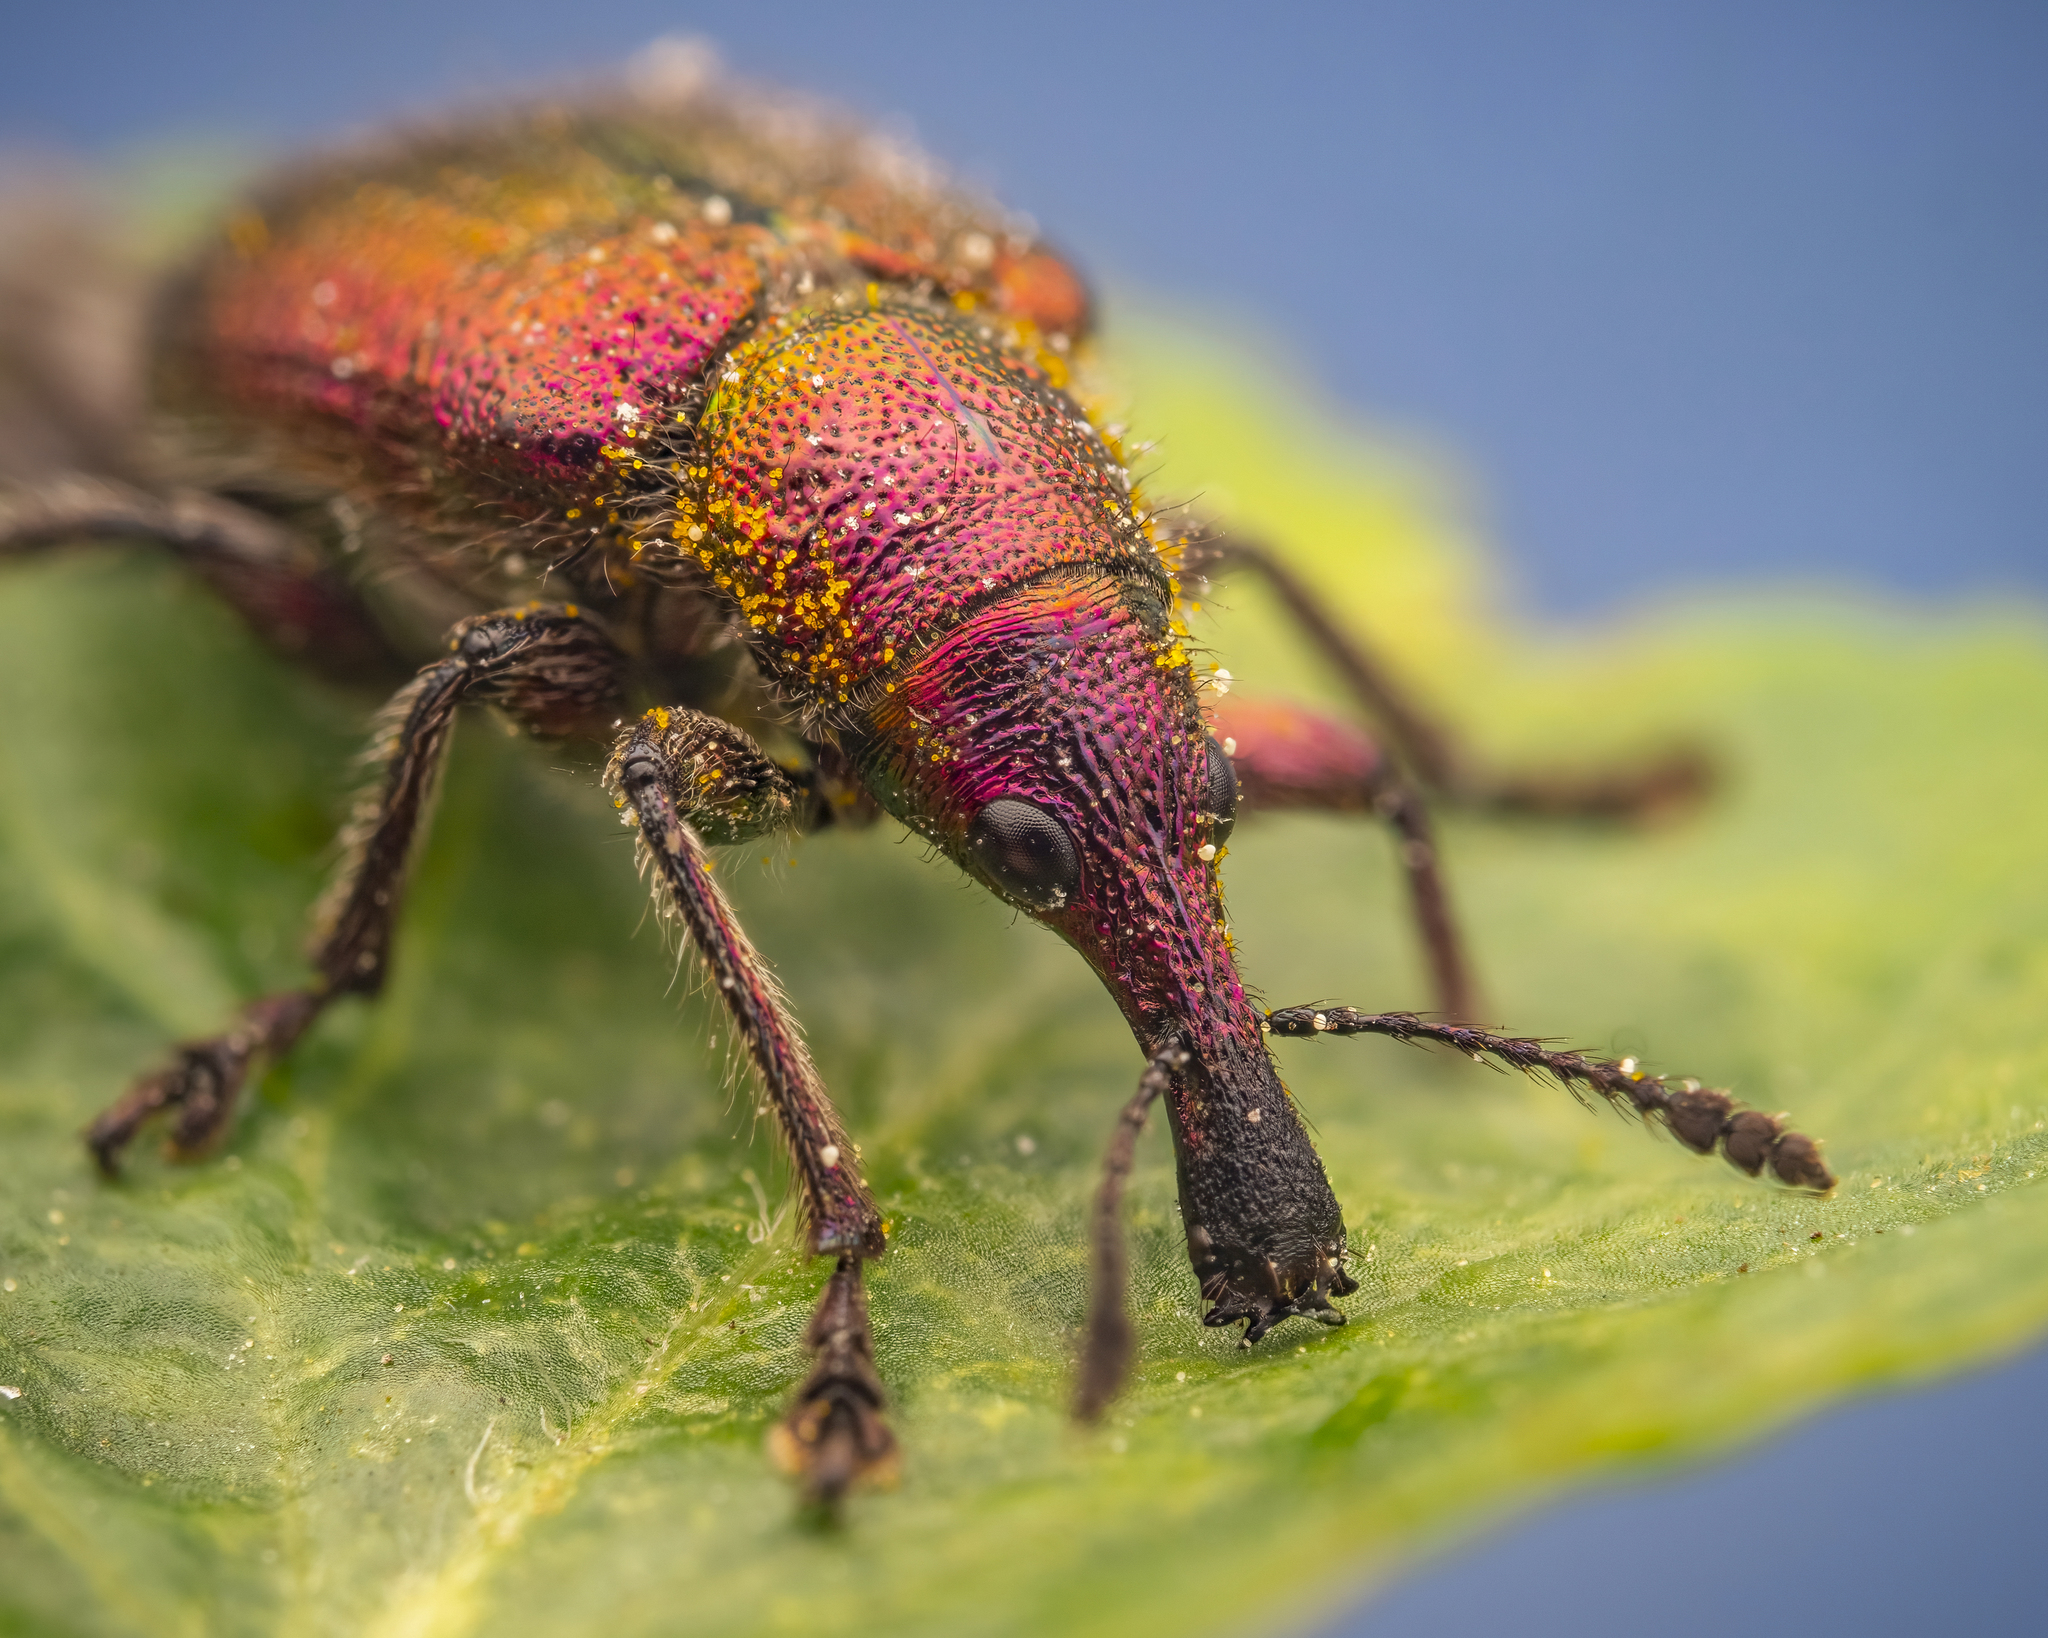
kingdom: Animalia
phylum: Arthropoda
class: Insecta
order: Coleoptera
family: Attelabidae
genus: Rhynchites
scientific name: Rhynchites auratus
